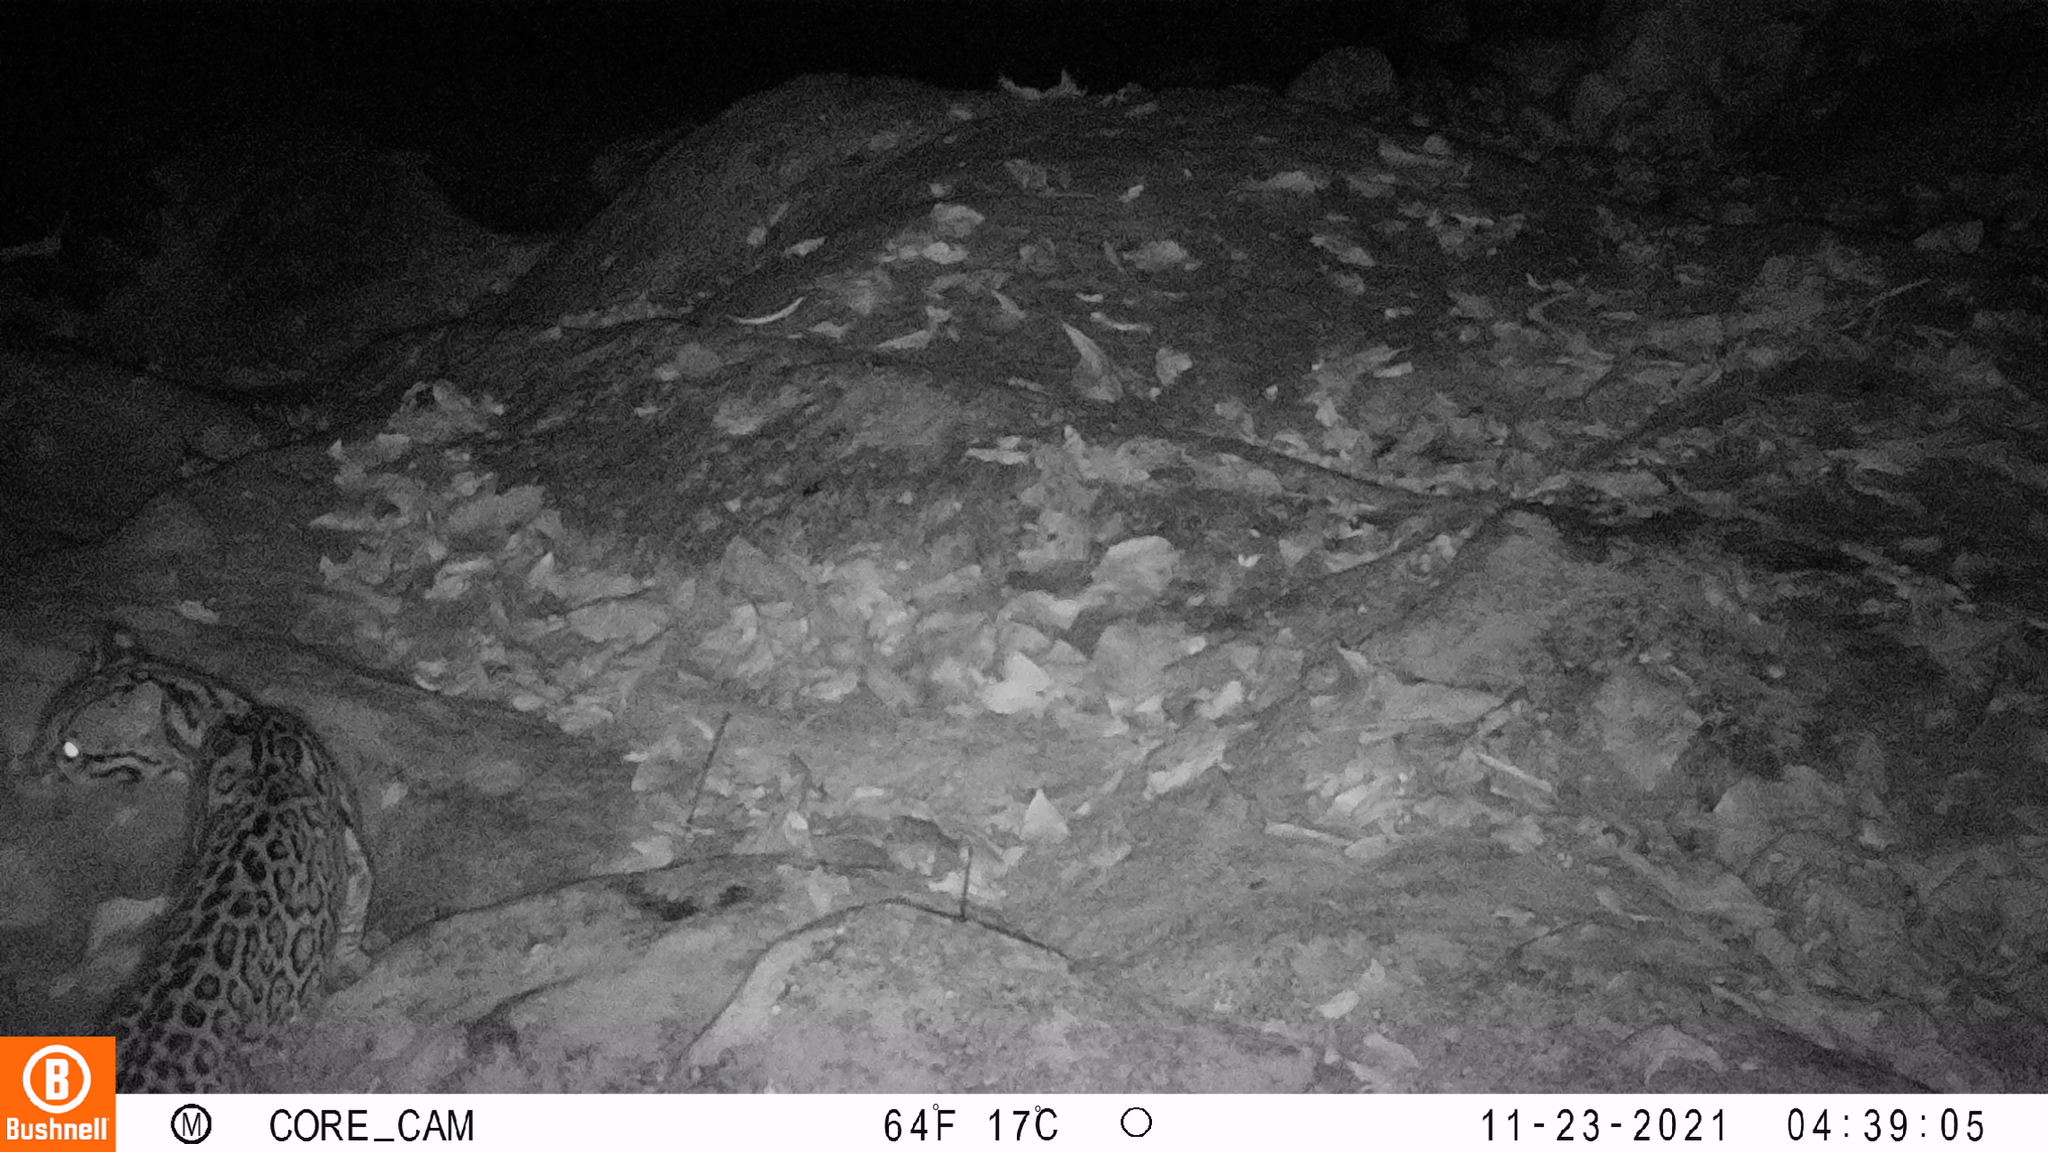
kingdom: Animalia
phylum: Chordata
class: Mammalia
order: Carnivora
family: Felidae
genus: Leopardus
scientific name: Leopardus pardalis
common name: Ocelot
